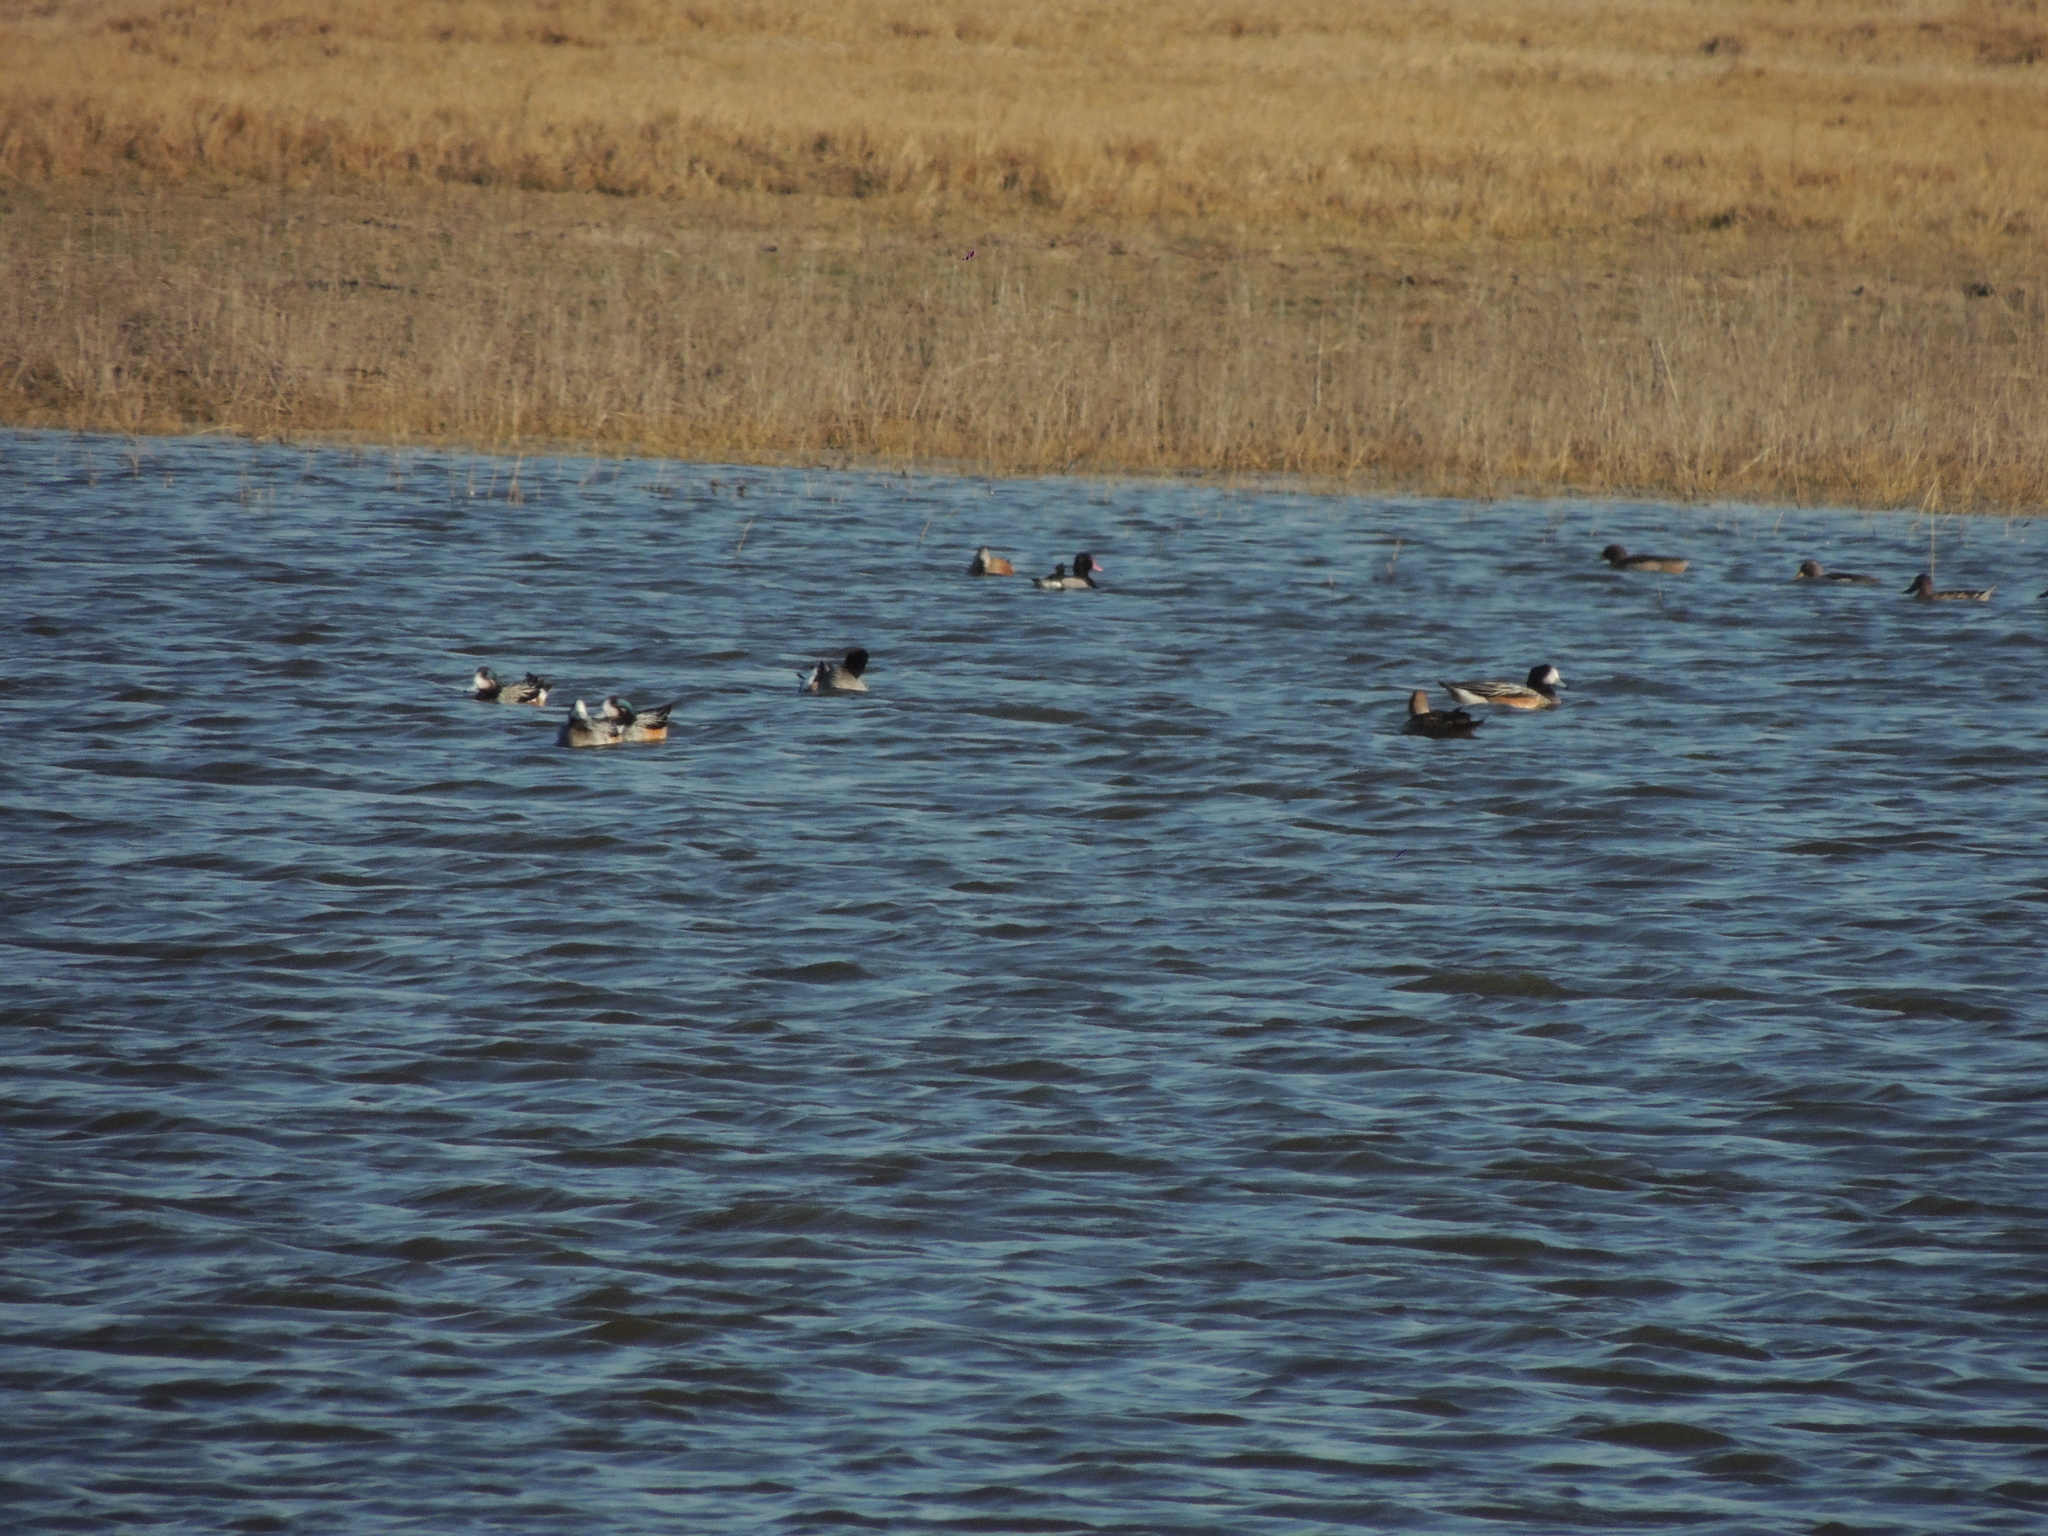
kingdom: Animalia
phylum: Chordata
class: Aves
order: Anseriformes
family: Anatidae
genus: Mareca
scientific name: Mareca sibilatrix
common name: Chiloe wigeon
